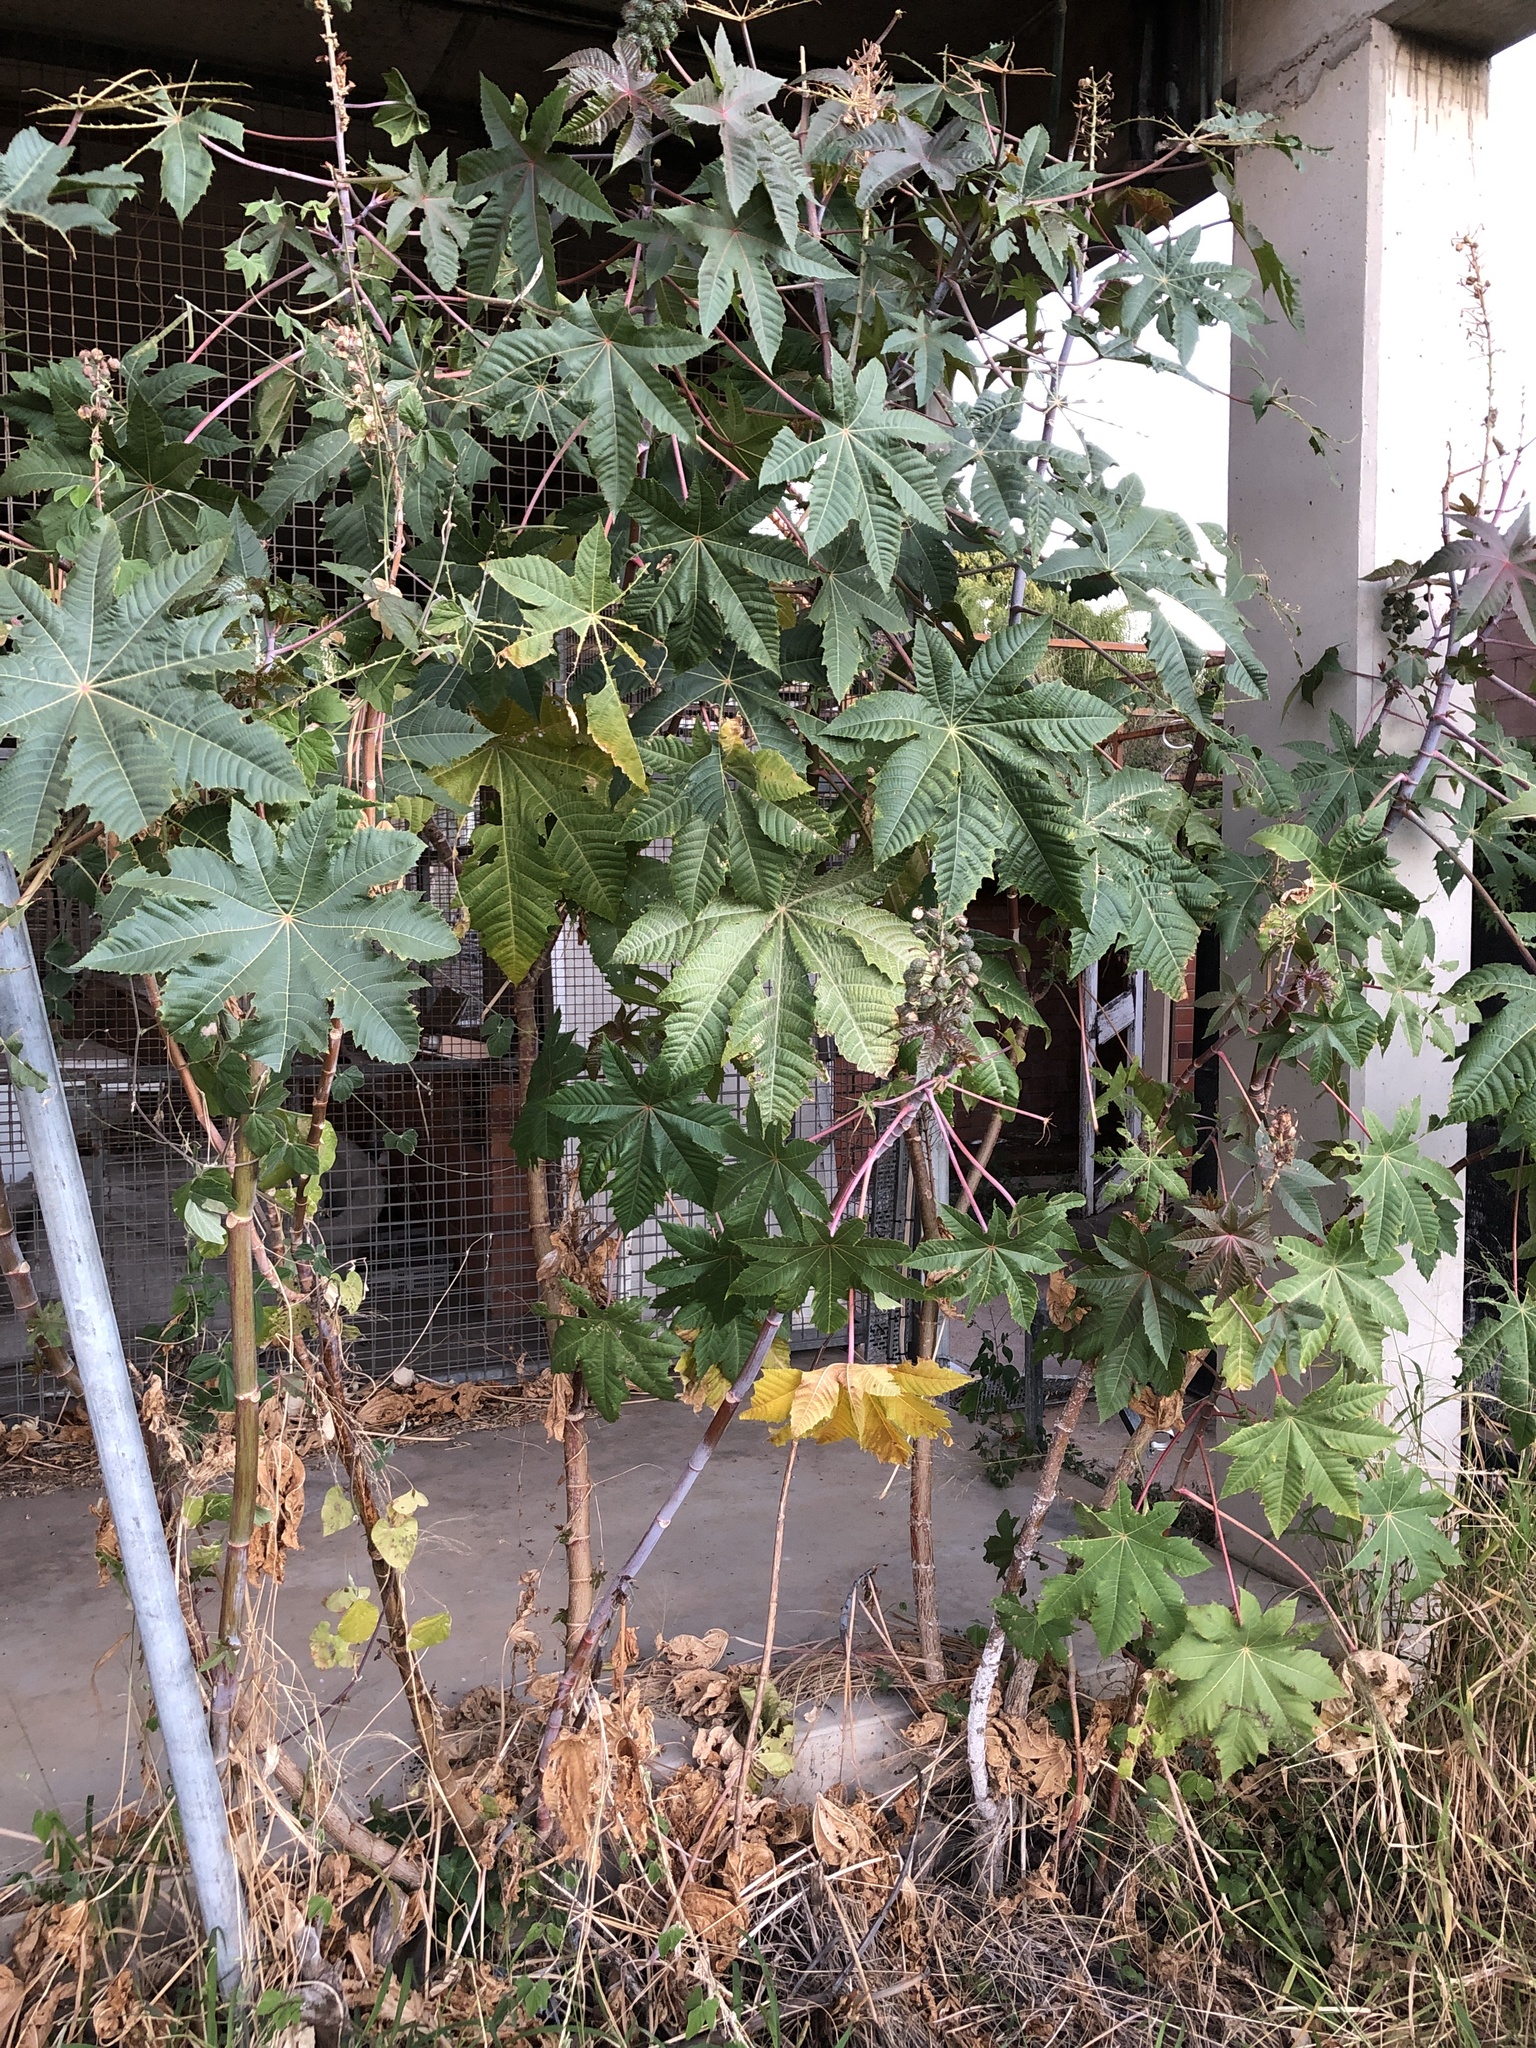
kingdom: Plantae
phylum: Tracheophyta
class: Magnoliopsida
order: Malpighiales
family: Euphorbiaceae
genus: Ricinus
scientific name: Ricinus communis
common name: Castor-oil-plant
